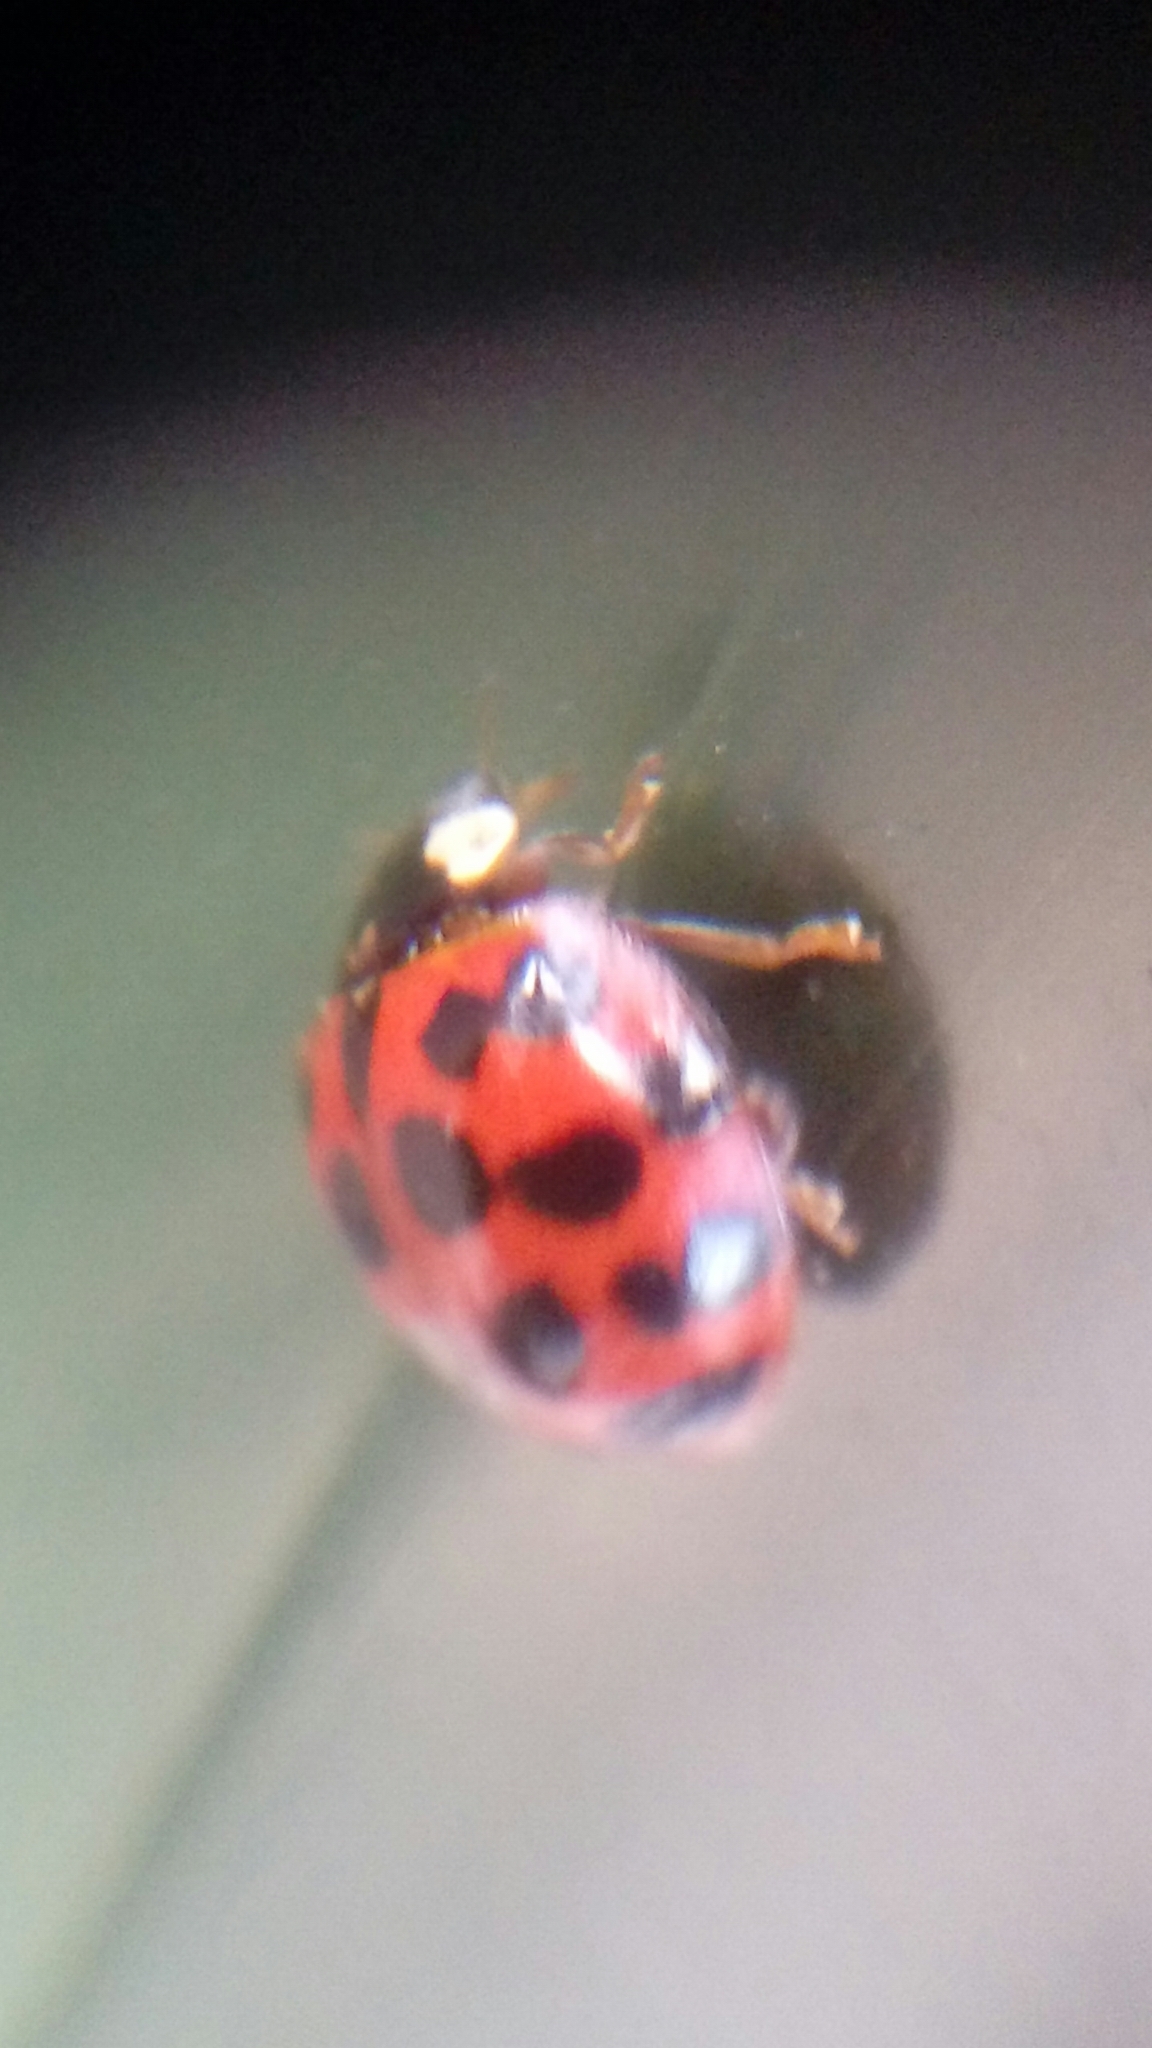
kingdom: Animalia
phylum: Arthropoda
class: Insecta
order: Coleoptera
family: Coccinellidae
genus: Harmonia
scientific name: Harmonia axyridis
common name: Harlequin ladybird
